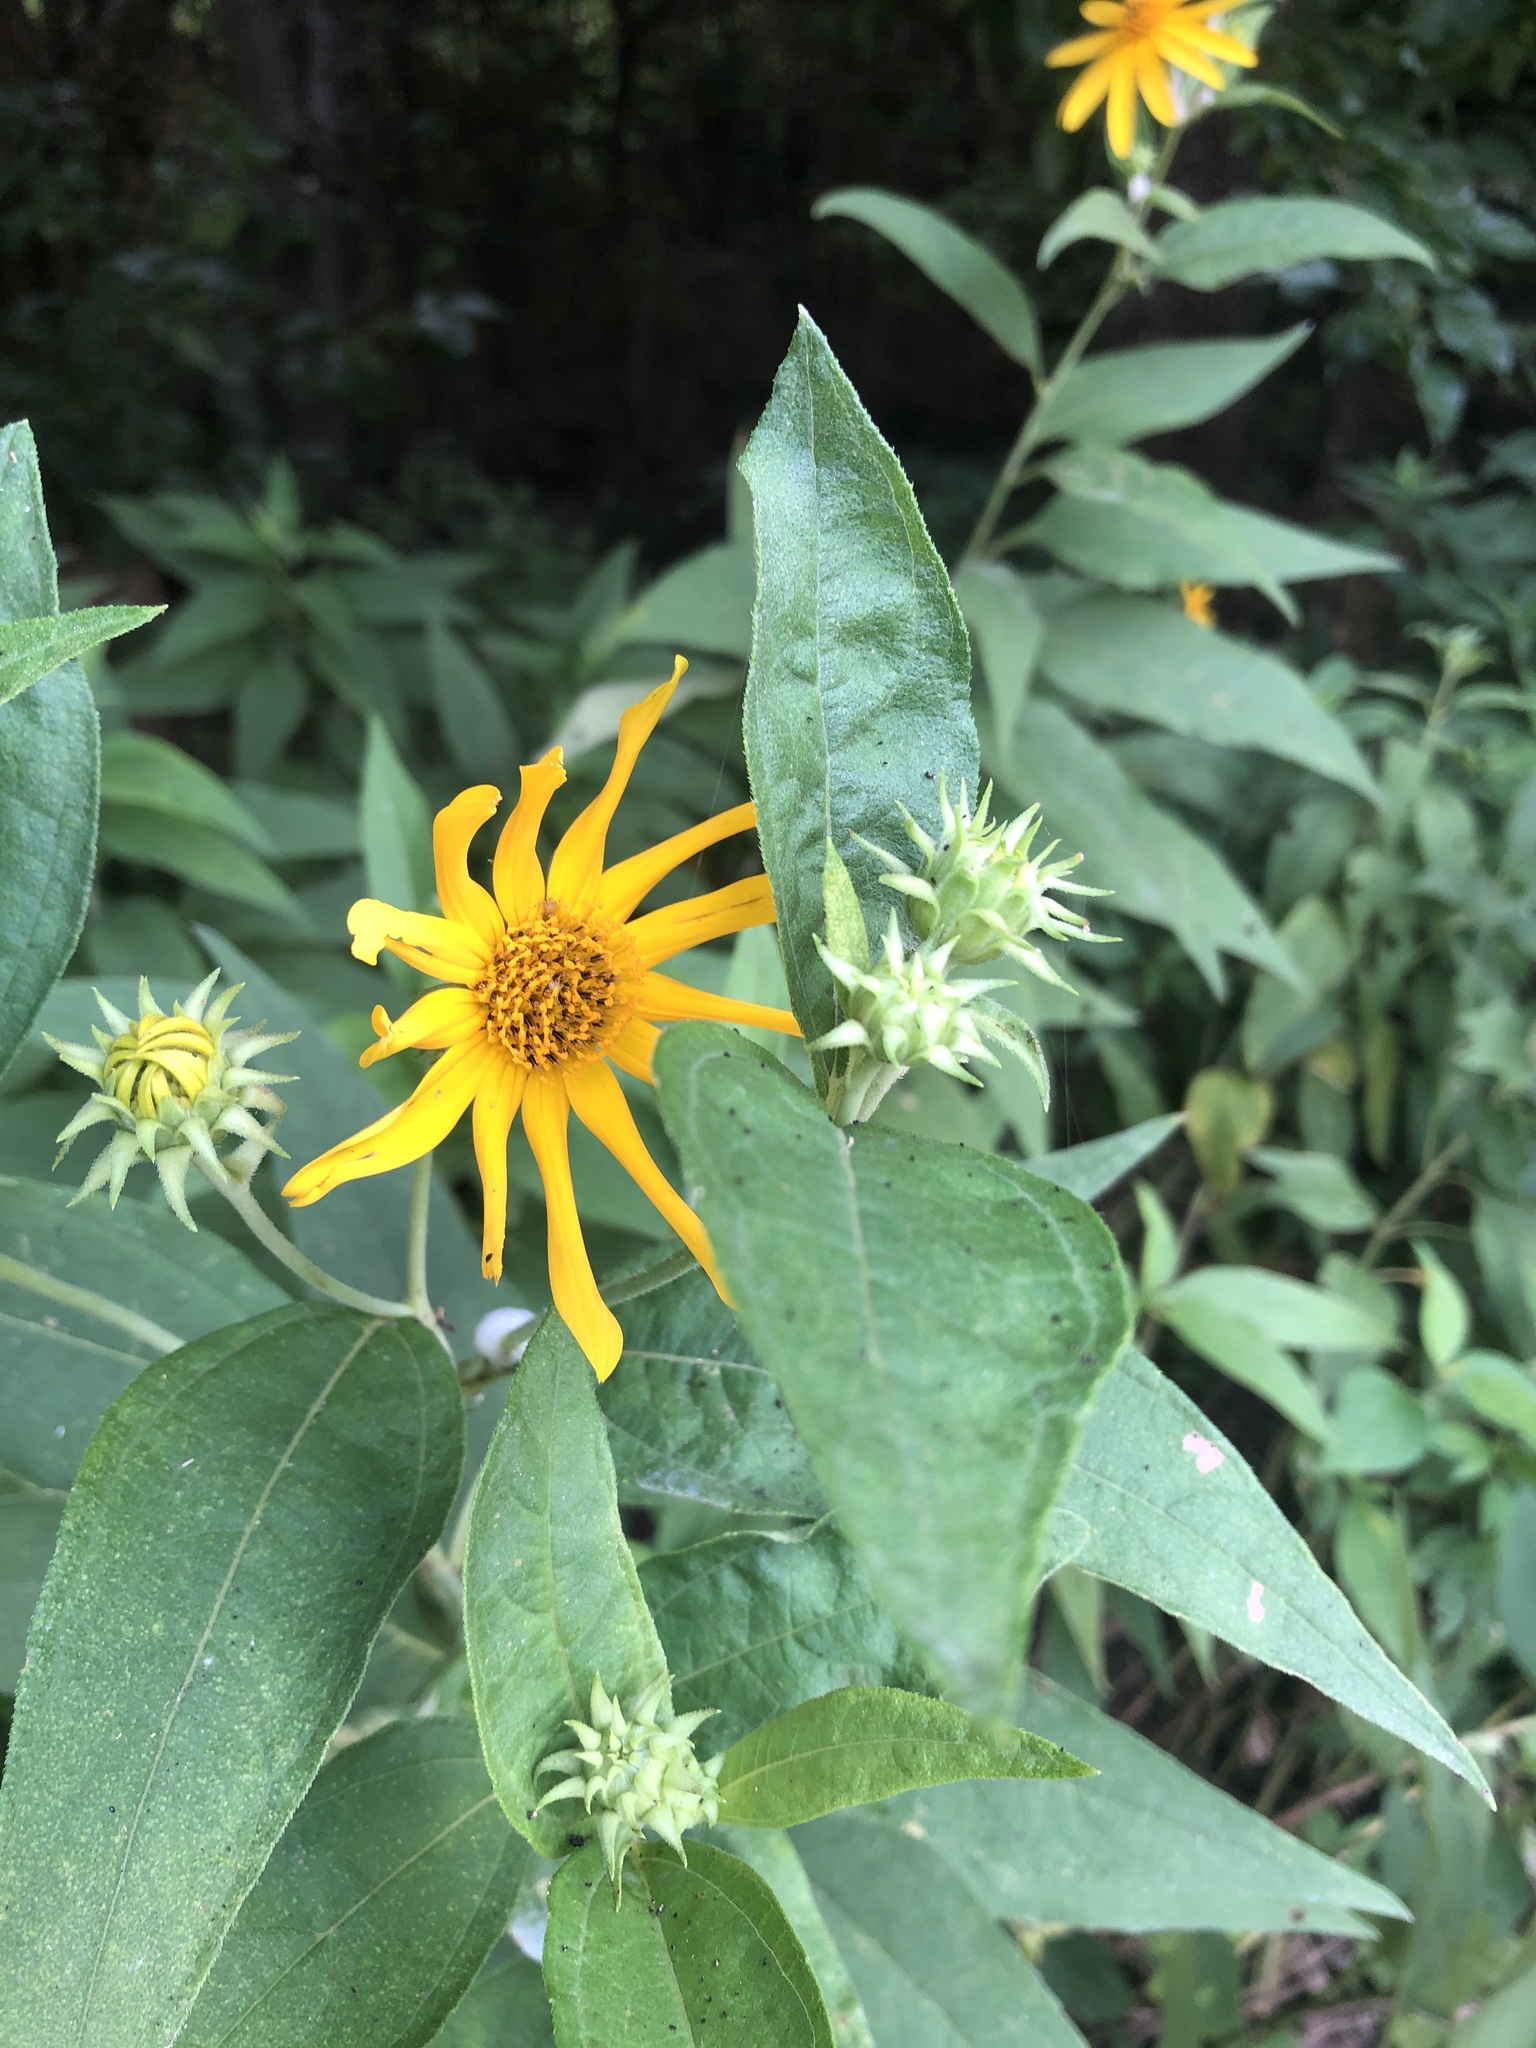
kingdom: Plantae
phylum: Tracheophyta
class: Magnoliopsida
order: Asterales
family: Asteraceae
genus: Helianthus
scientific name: Helianthus hirsutus
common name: Hairy sunflower
